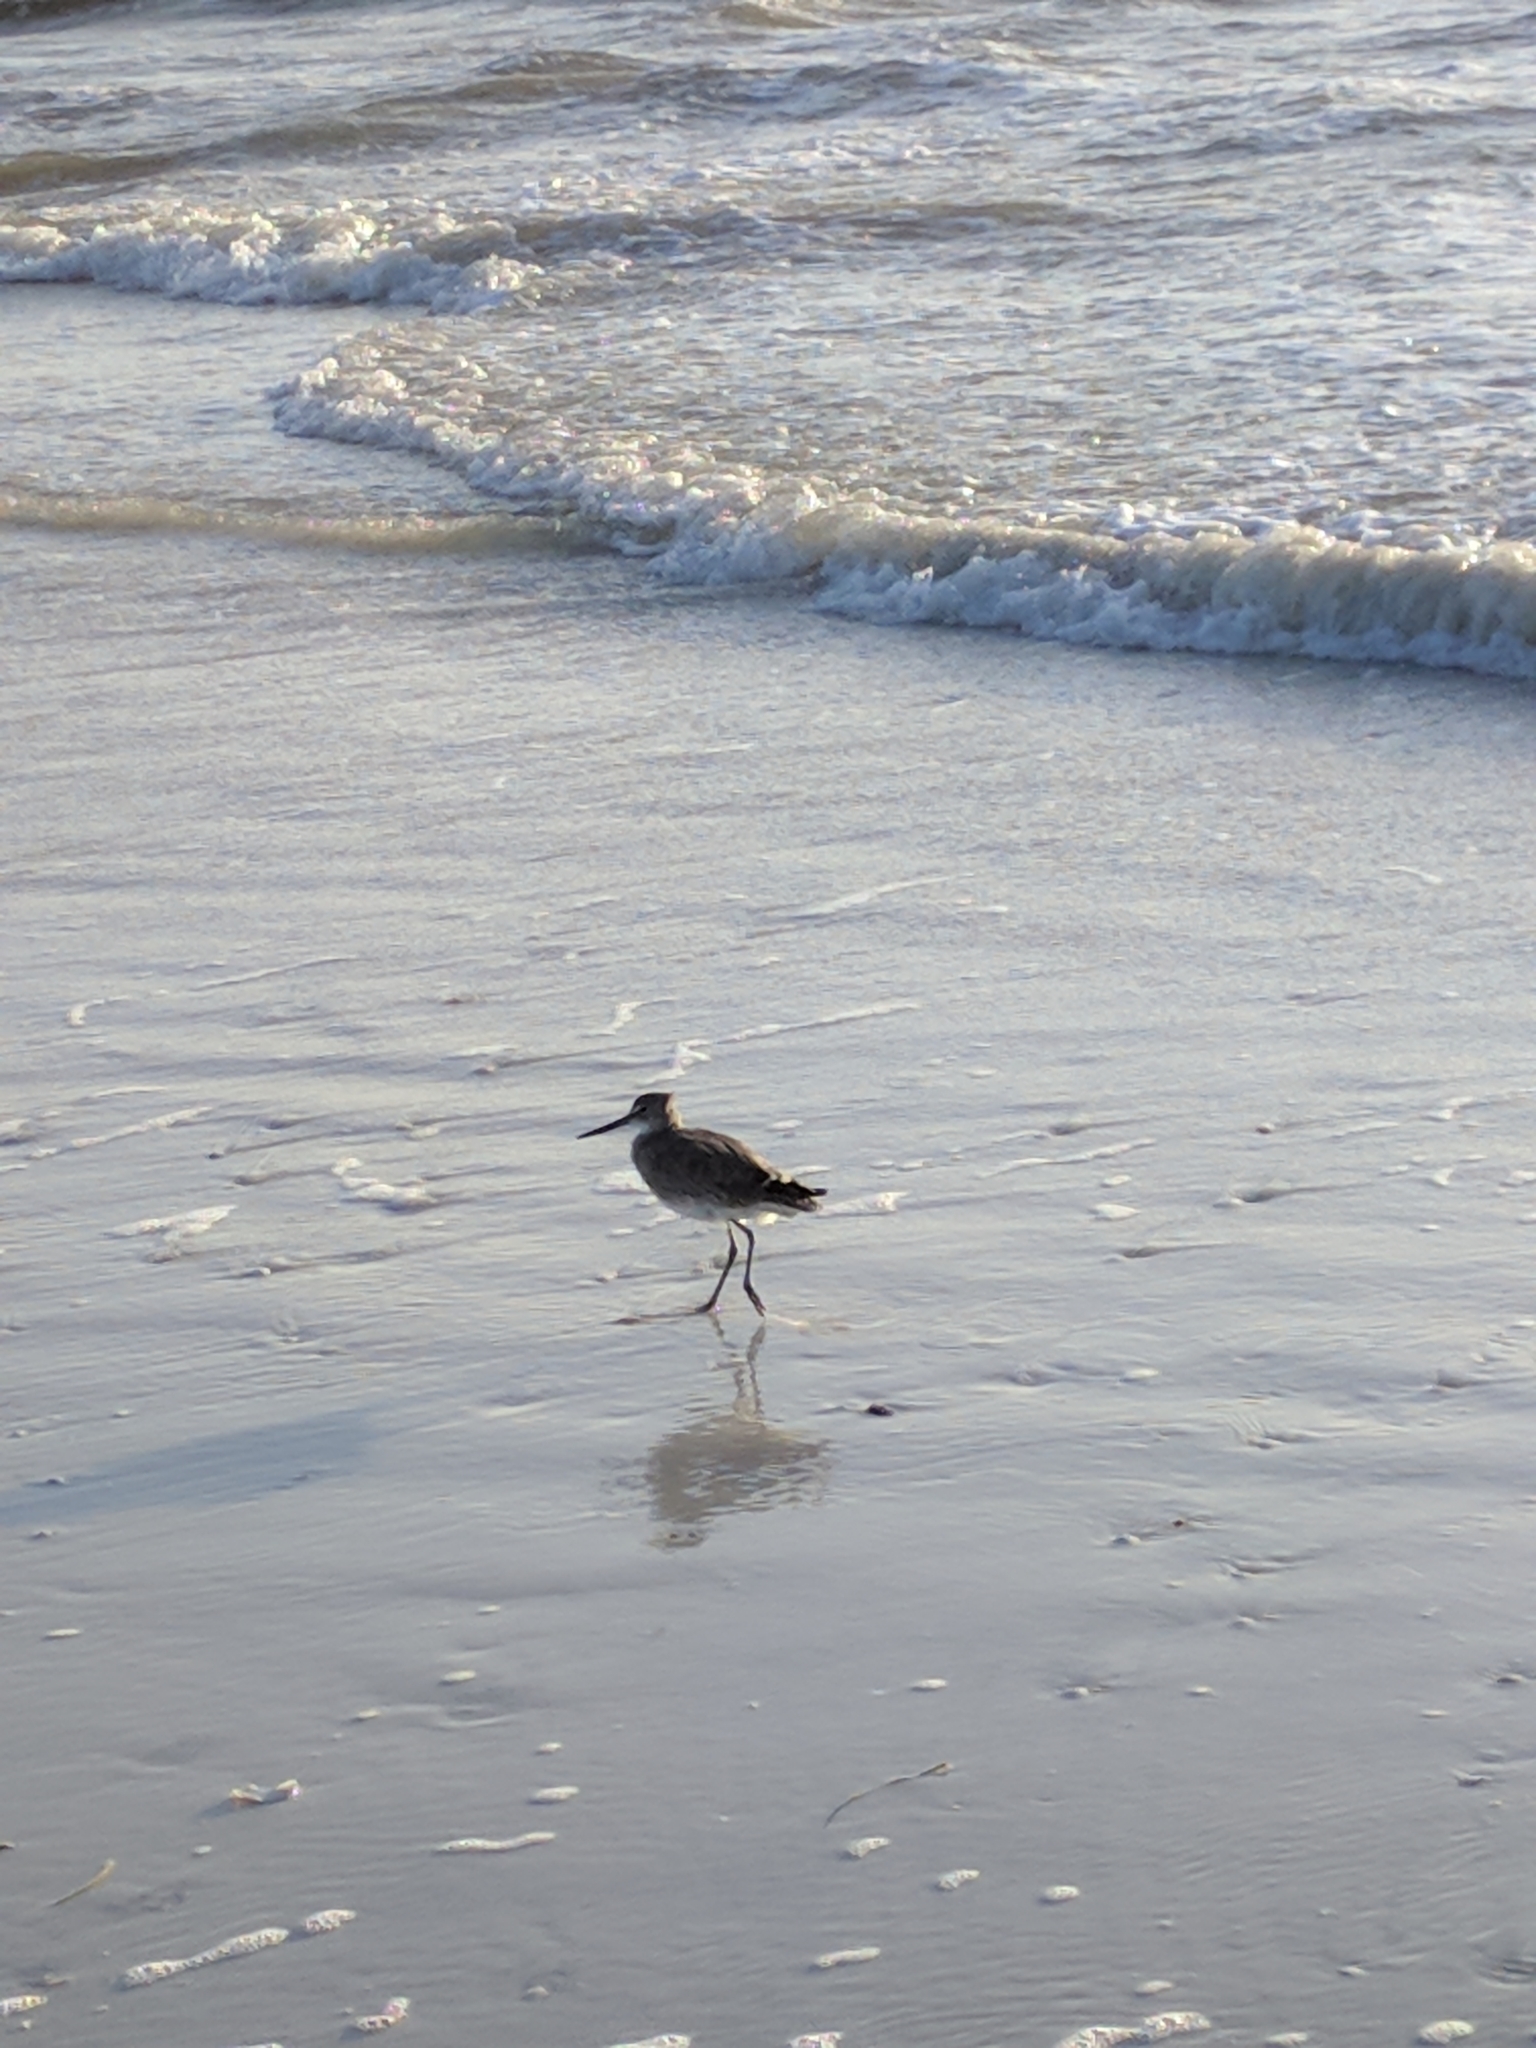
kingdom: Animalia
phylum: Chordata
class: Aves
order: Charadriiformes
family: Scolopacidae
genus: Tringa
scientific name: Tringa semipalmata
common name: Willet
